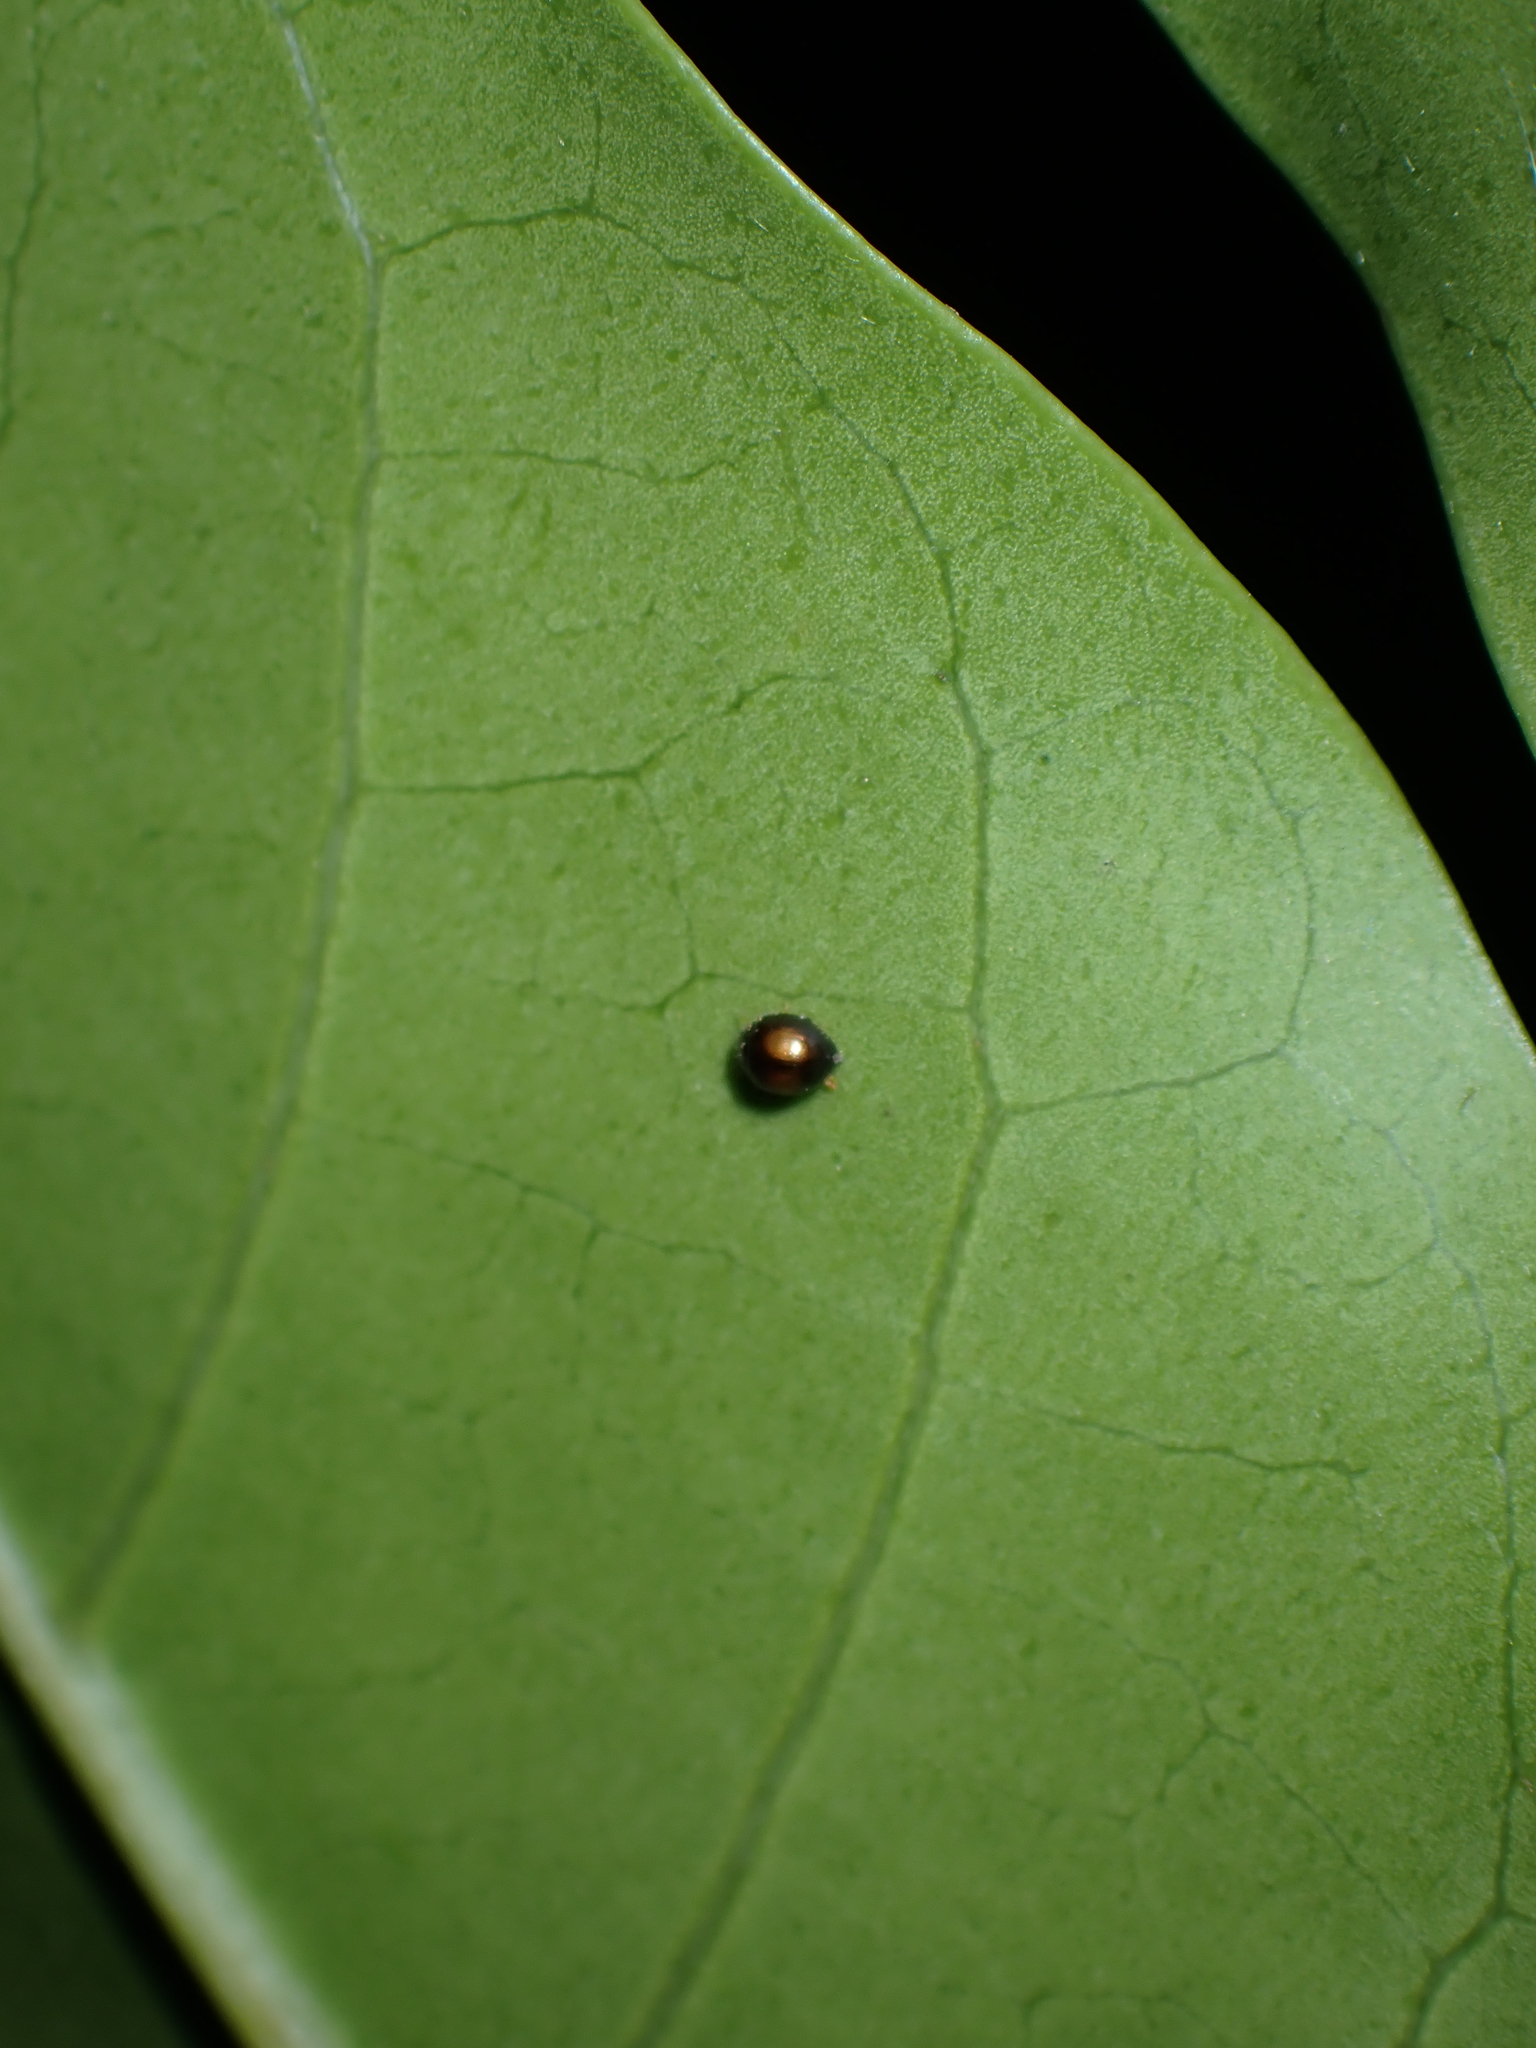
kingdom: Animalia
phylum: Arthropoda
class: Insecta
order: Coleoptera
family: Coccinellidae
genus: Serangium
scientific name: Serangium maculigerum
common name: Lady beetle
